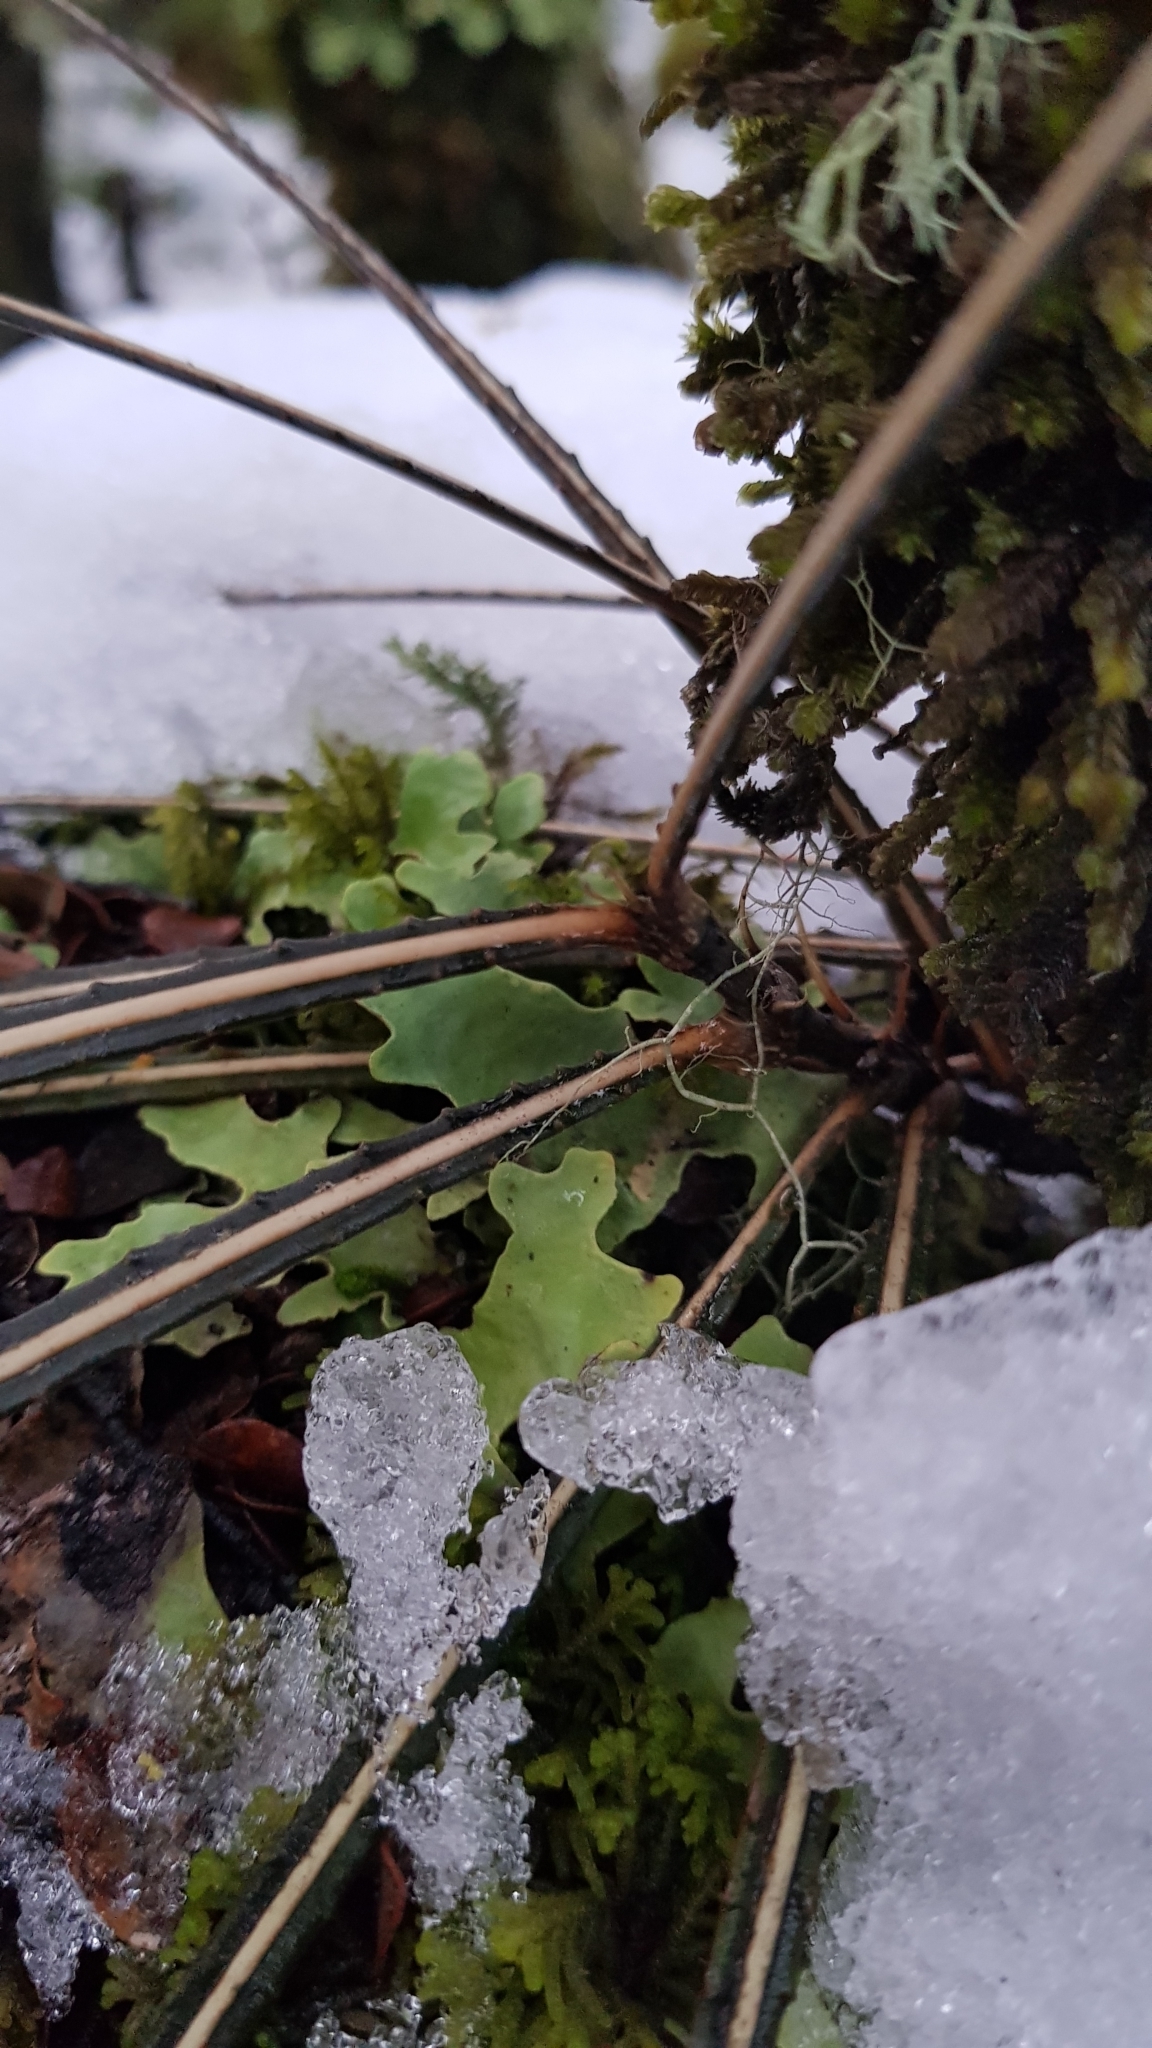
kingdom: Plantae
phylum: Tracheophyta
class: Magnoliopsida
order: Apiales
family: Araliaceae
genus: Pseudopanax
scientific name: Pseudopanax crassifolius
